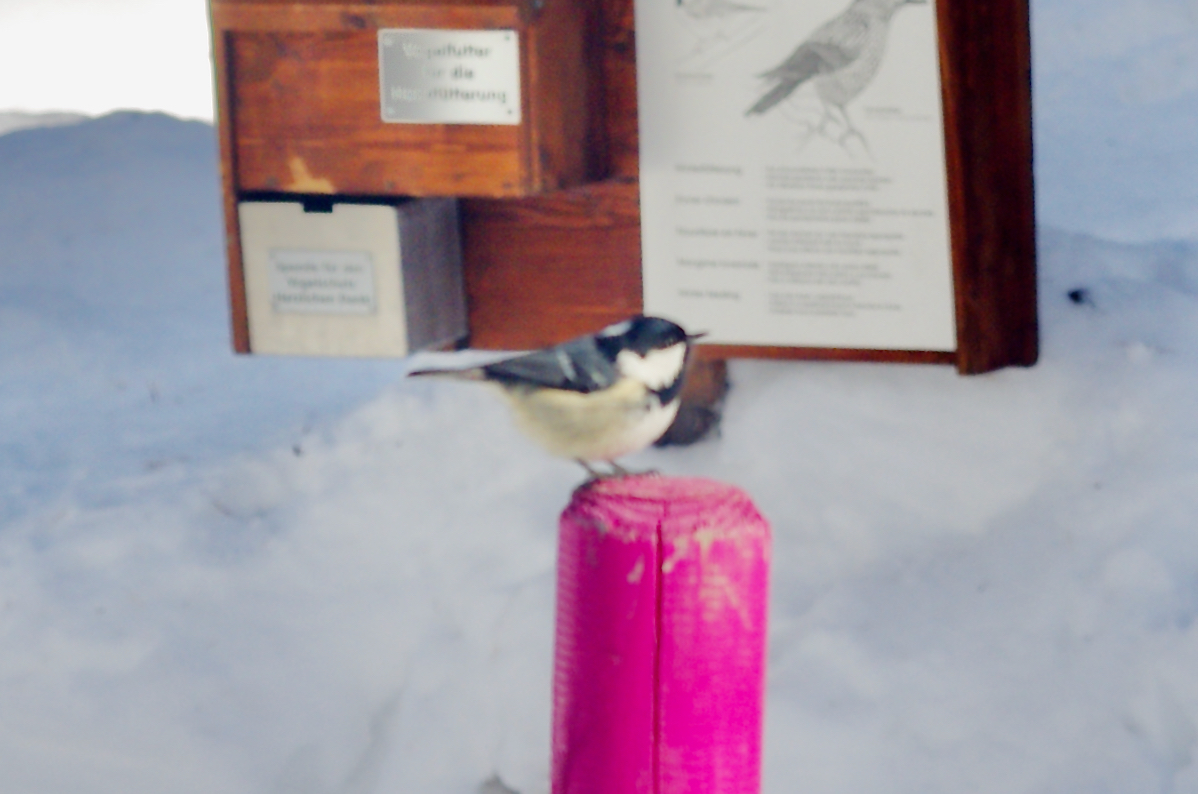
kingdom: Animalia
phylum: Chordata
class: Aves
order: Passeriformes
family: Paridae
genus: Periparus
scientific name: Periparus ater
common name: Coal tit
